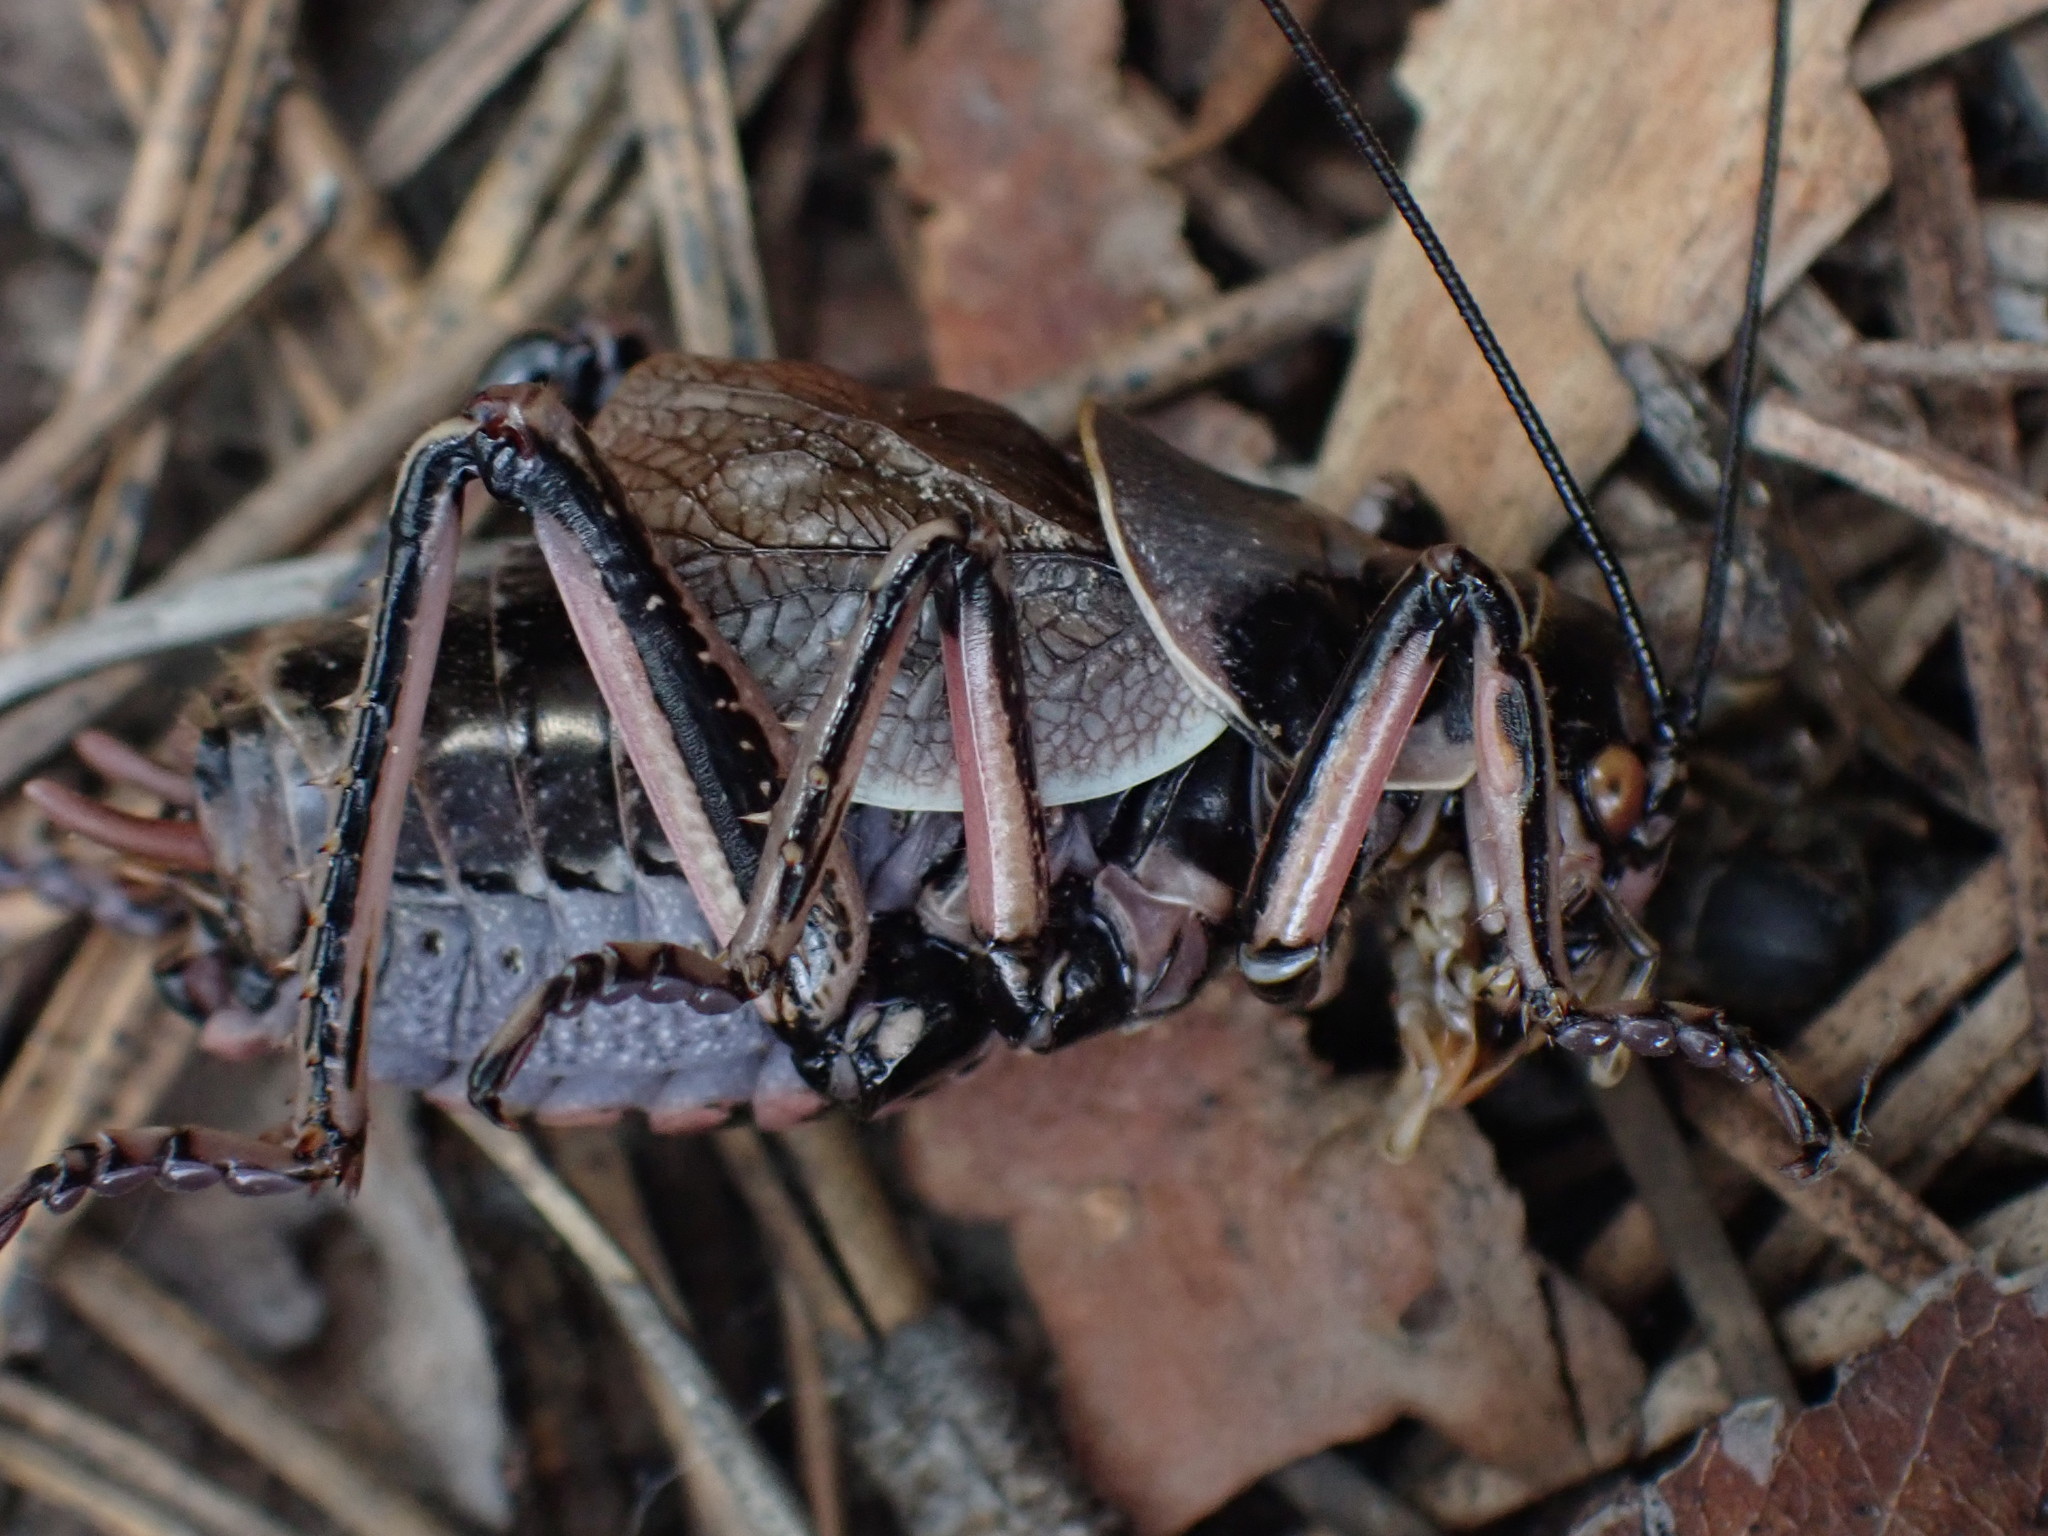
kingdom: Animalia
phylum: Arthropoda
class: Insecta
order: Orthoptera
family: Prophalangopsidae
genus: Cyphoderris
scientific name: Cyphoderris monstrosa
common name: Great grig
